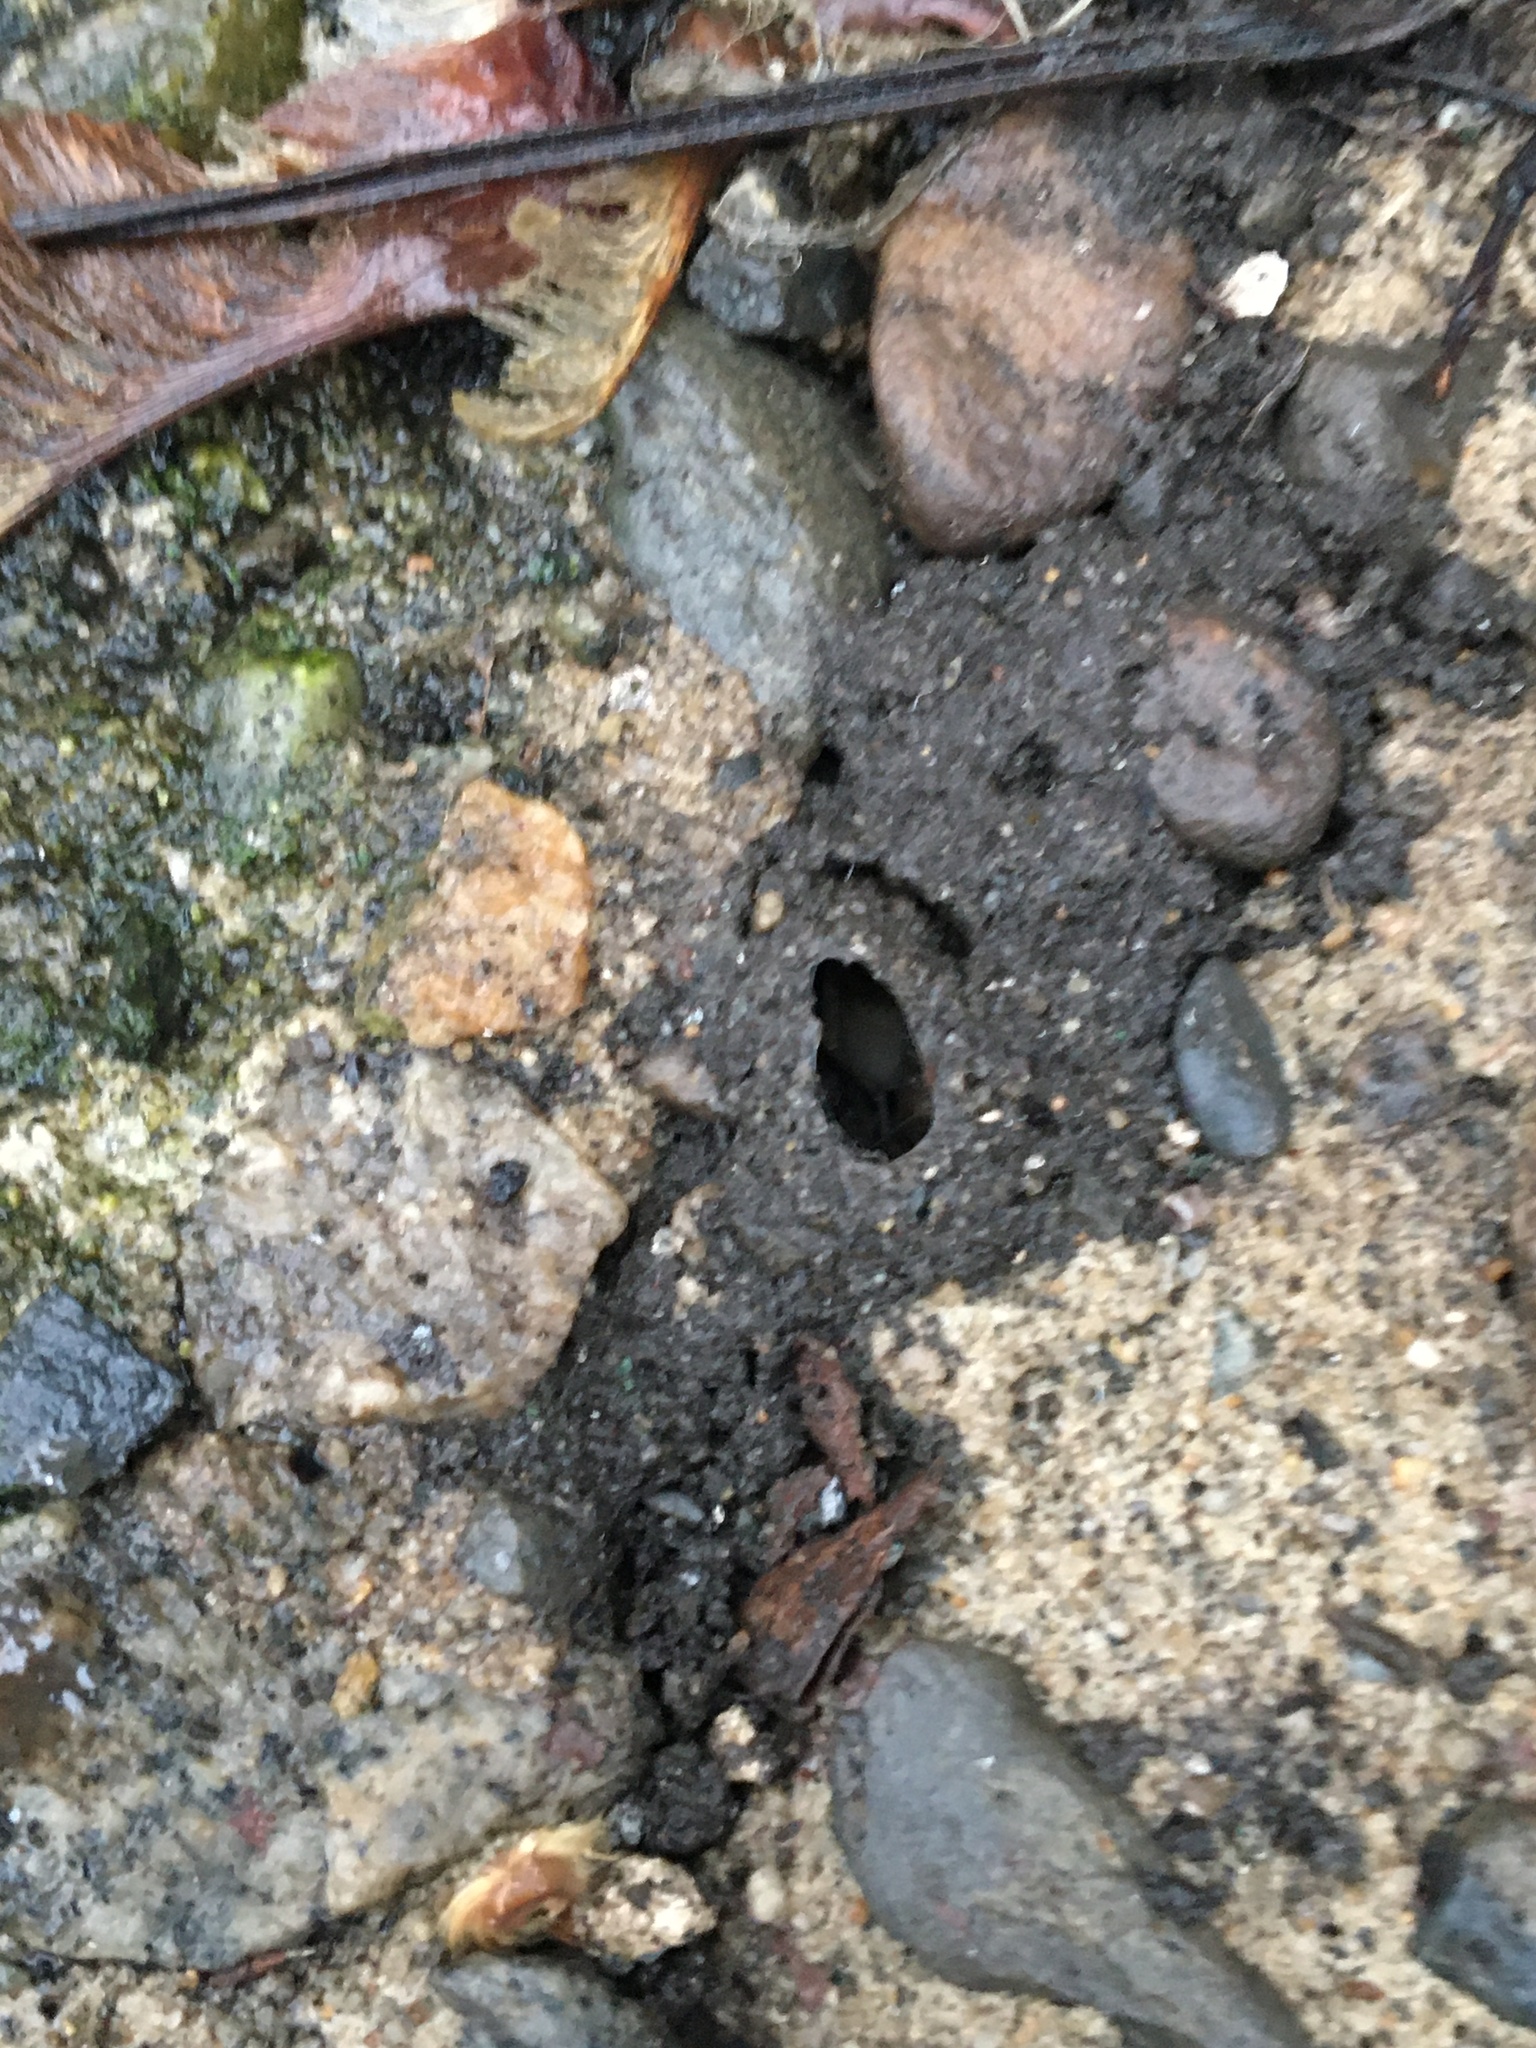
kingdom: Animalia
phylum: Arthropoda
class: Arachnida
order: Araneae
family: Lycosidae
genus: Trochosa
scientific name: Trochosa
